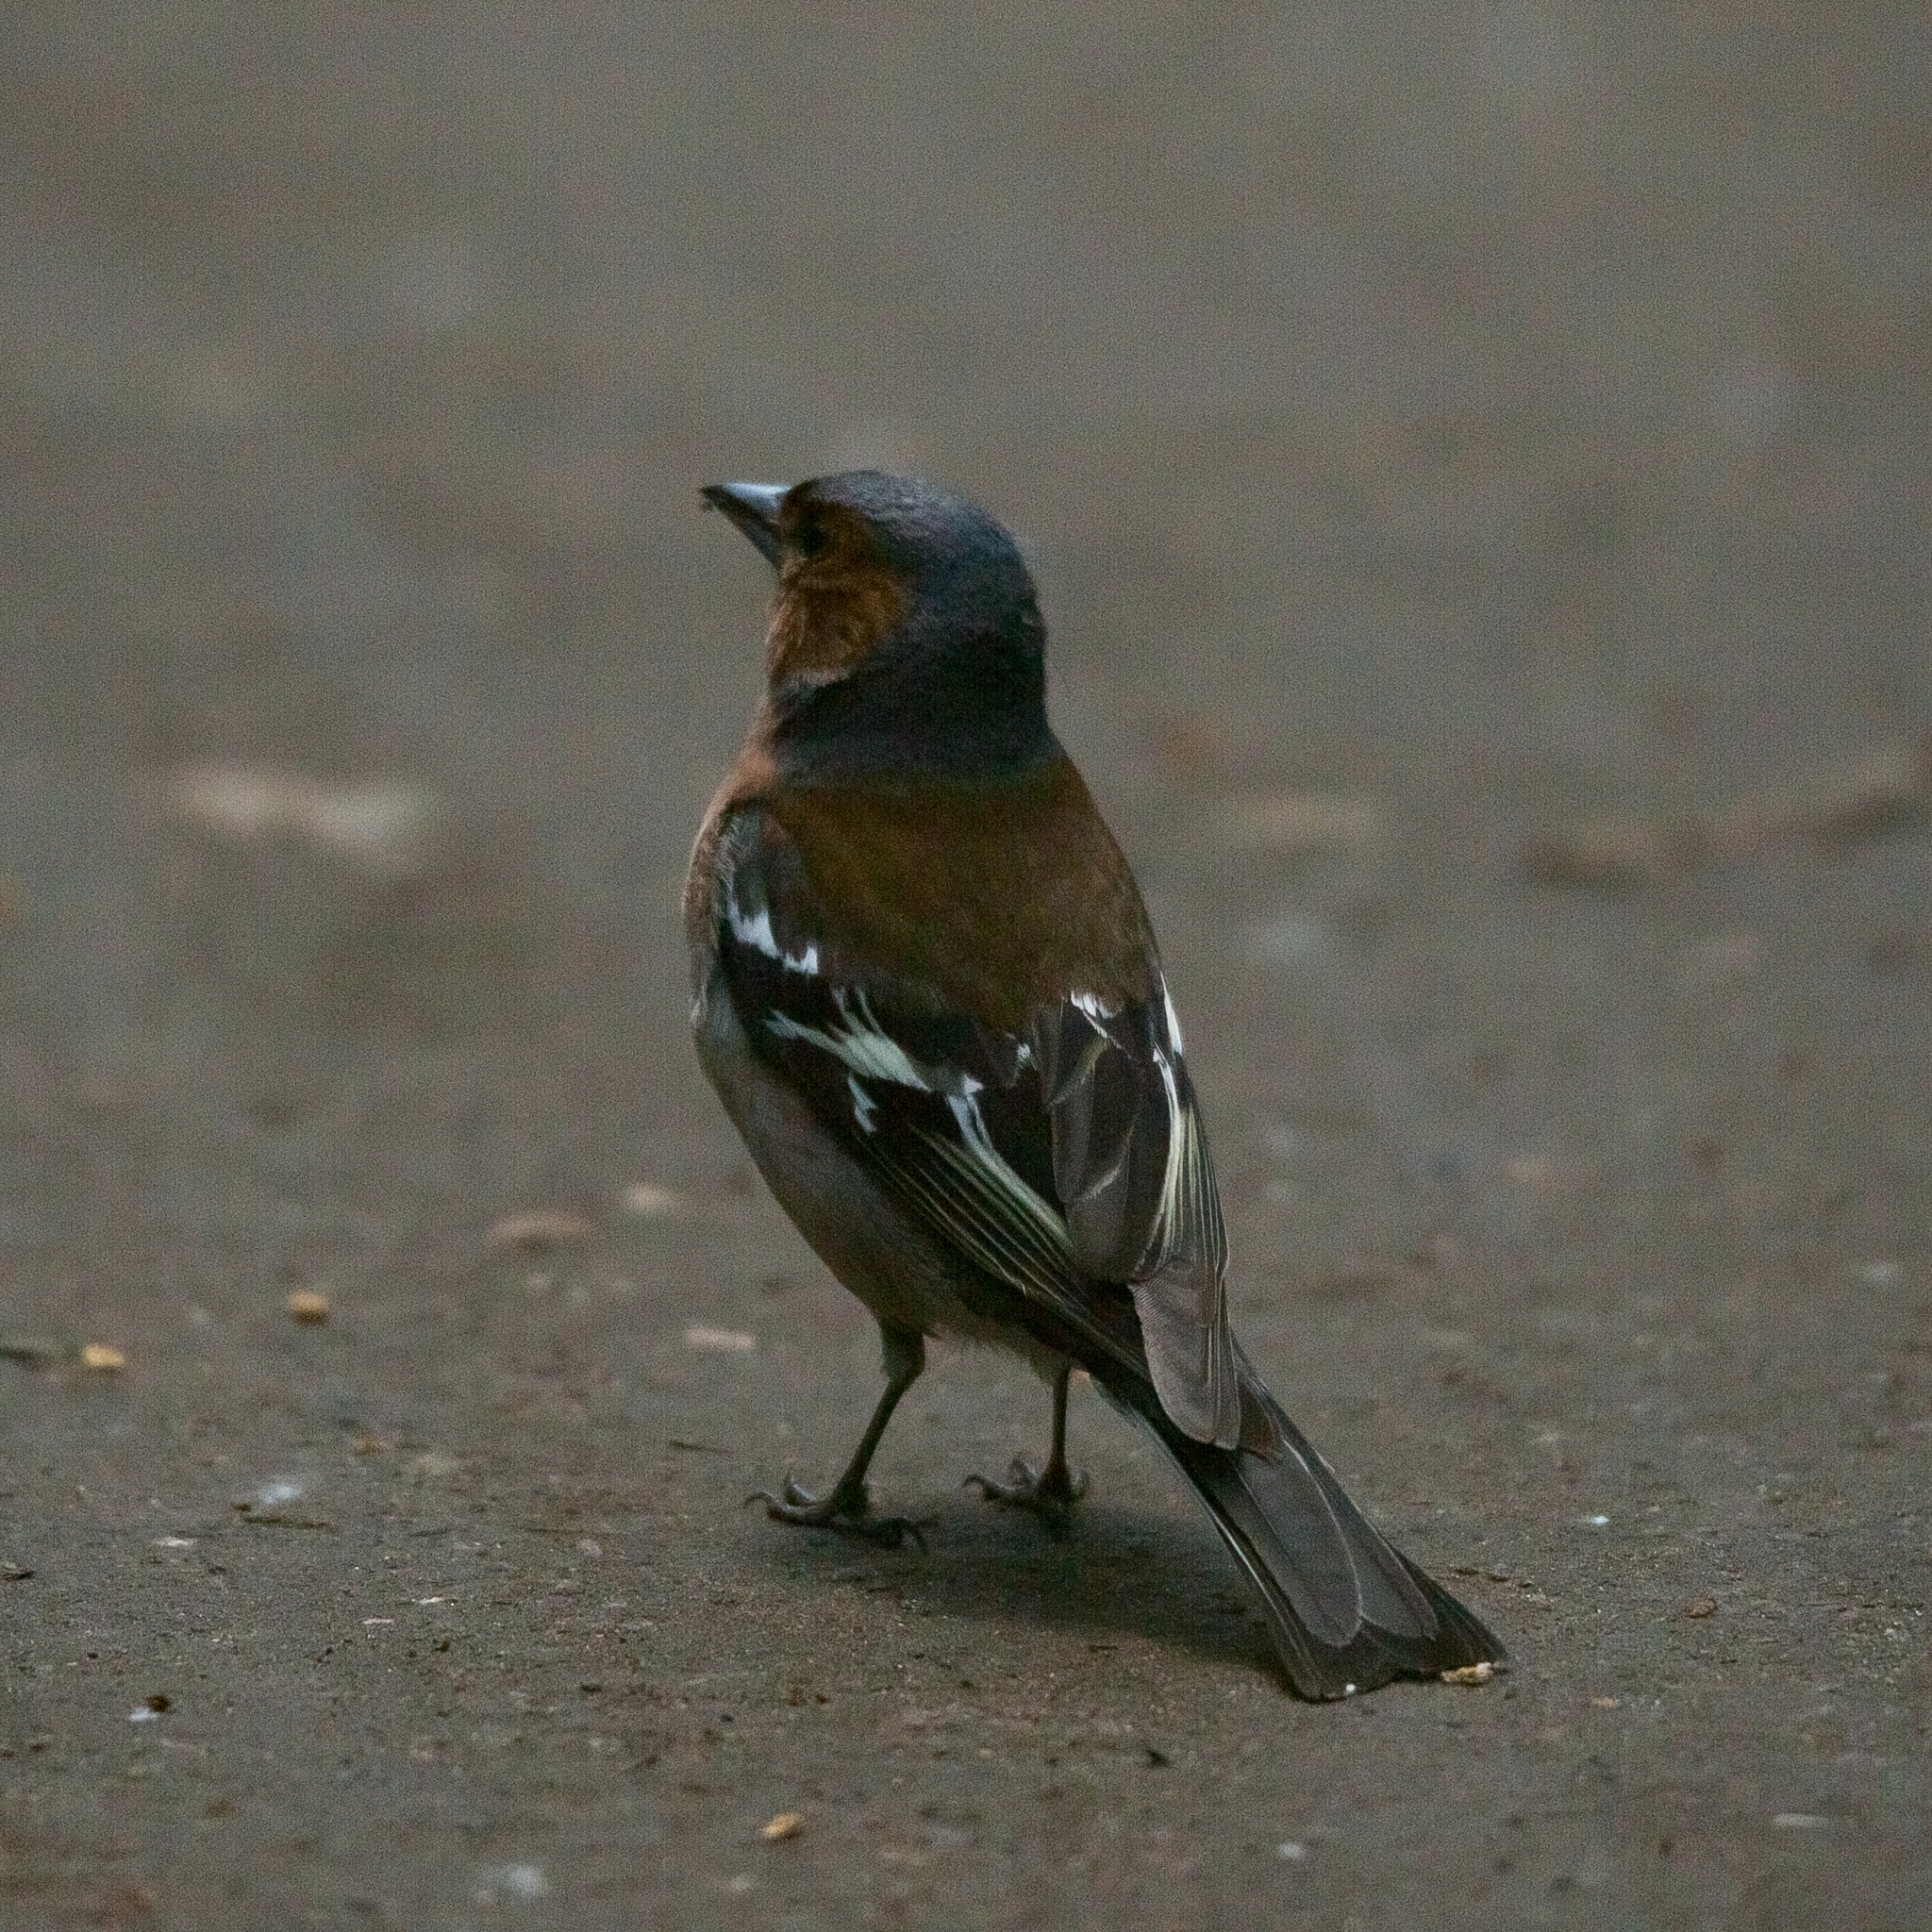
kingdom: Animalia
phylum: Chordata
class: Aves
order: Passeriformes
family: Fringillidae
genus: Fringilla
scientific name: Fringilla coelebs
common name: Common chaffinch
